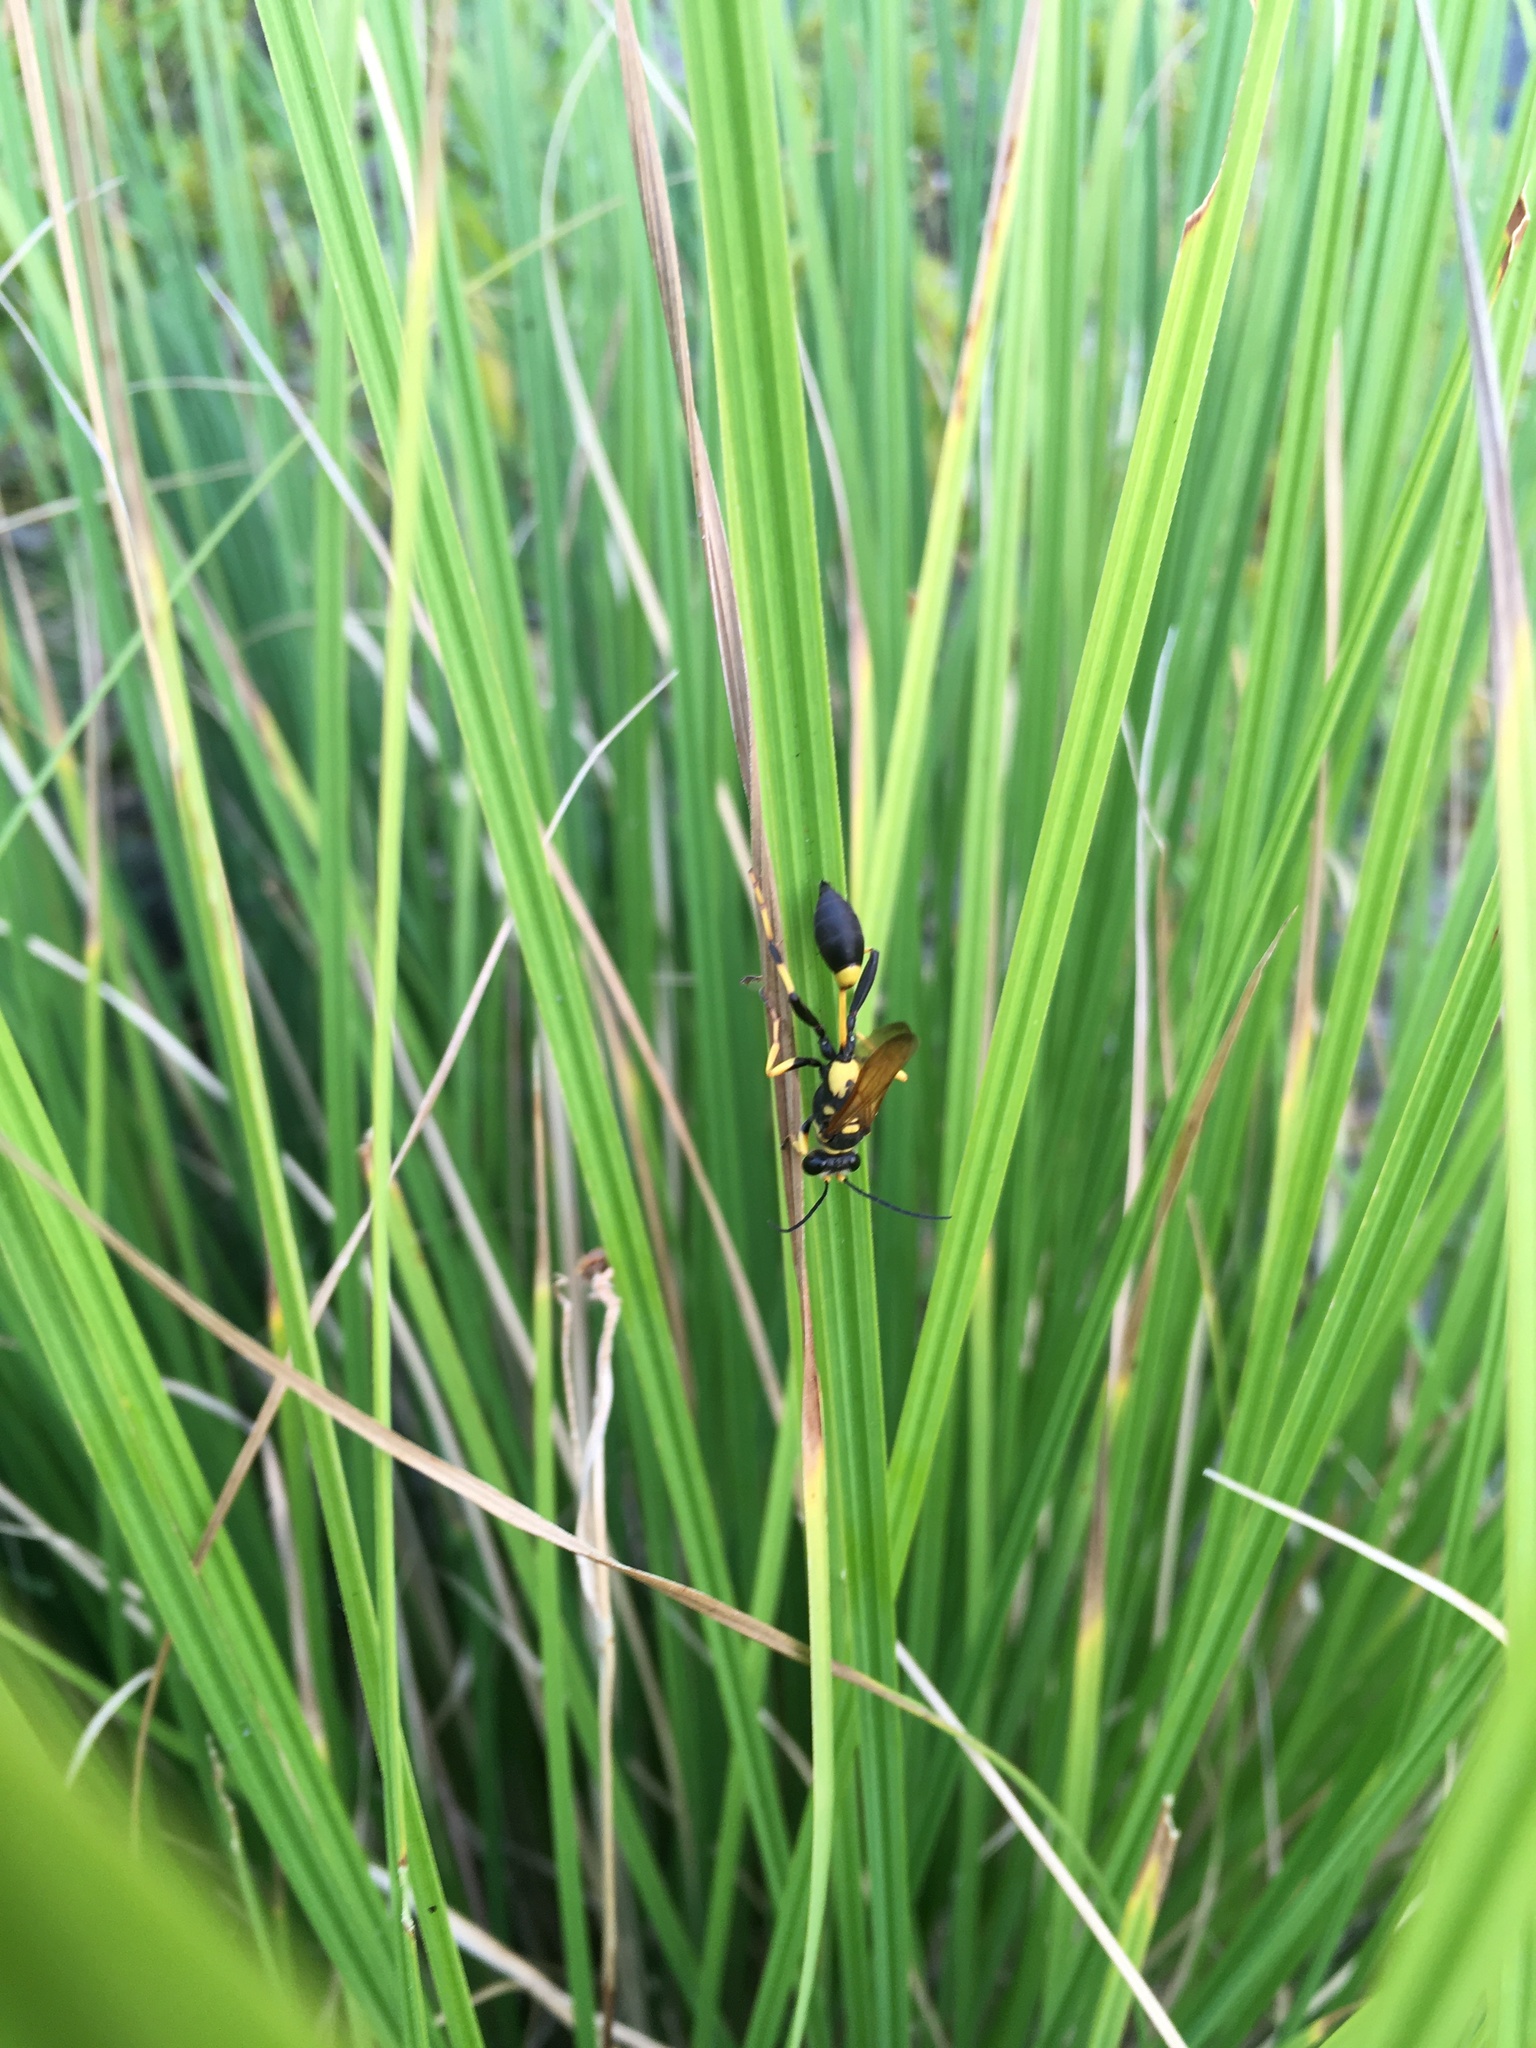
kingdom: Animalia
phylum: Arthropoda
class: Insecta
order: Hymenoptera
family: Sphecidae
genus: Sceliphron
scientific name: Sceliphron caementarium
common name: Mud dauber
